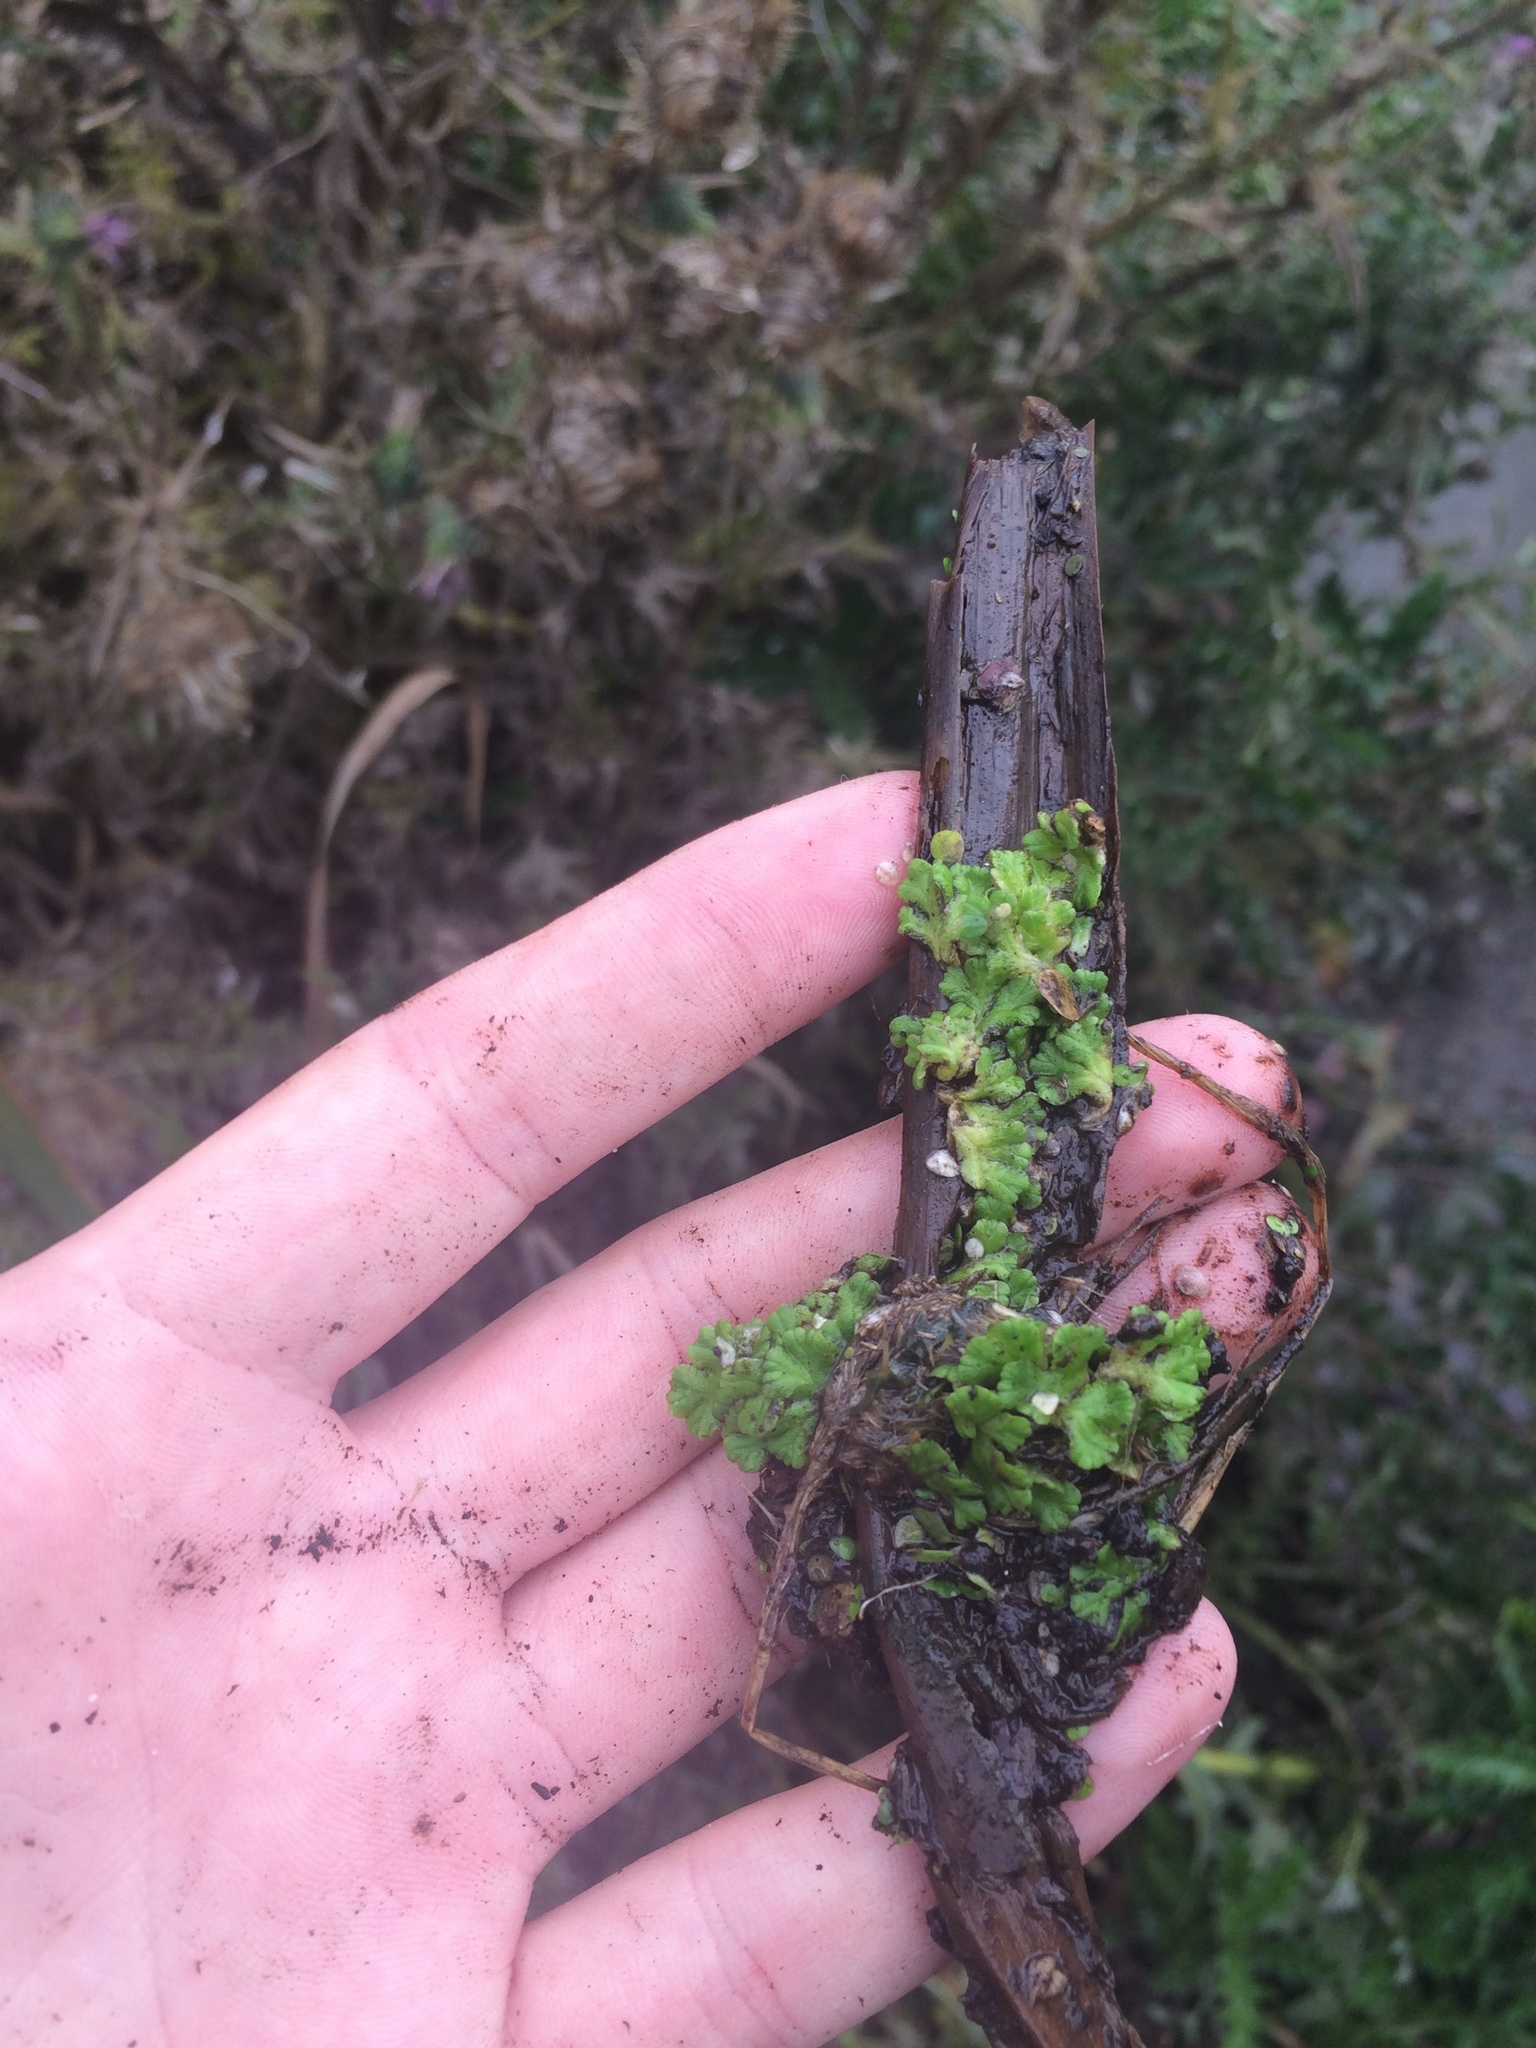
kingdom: Plantae
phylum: Marchantiophyta
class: Marchantiopsida
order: Marchantiales
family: Ricciaceae
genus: Ricciocarpos
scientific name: Ricciocarpos natans
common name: Purple-fringed liverwort
